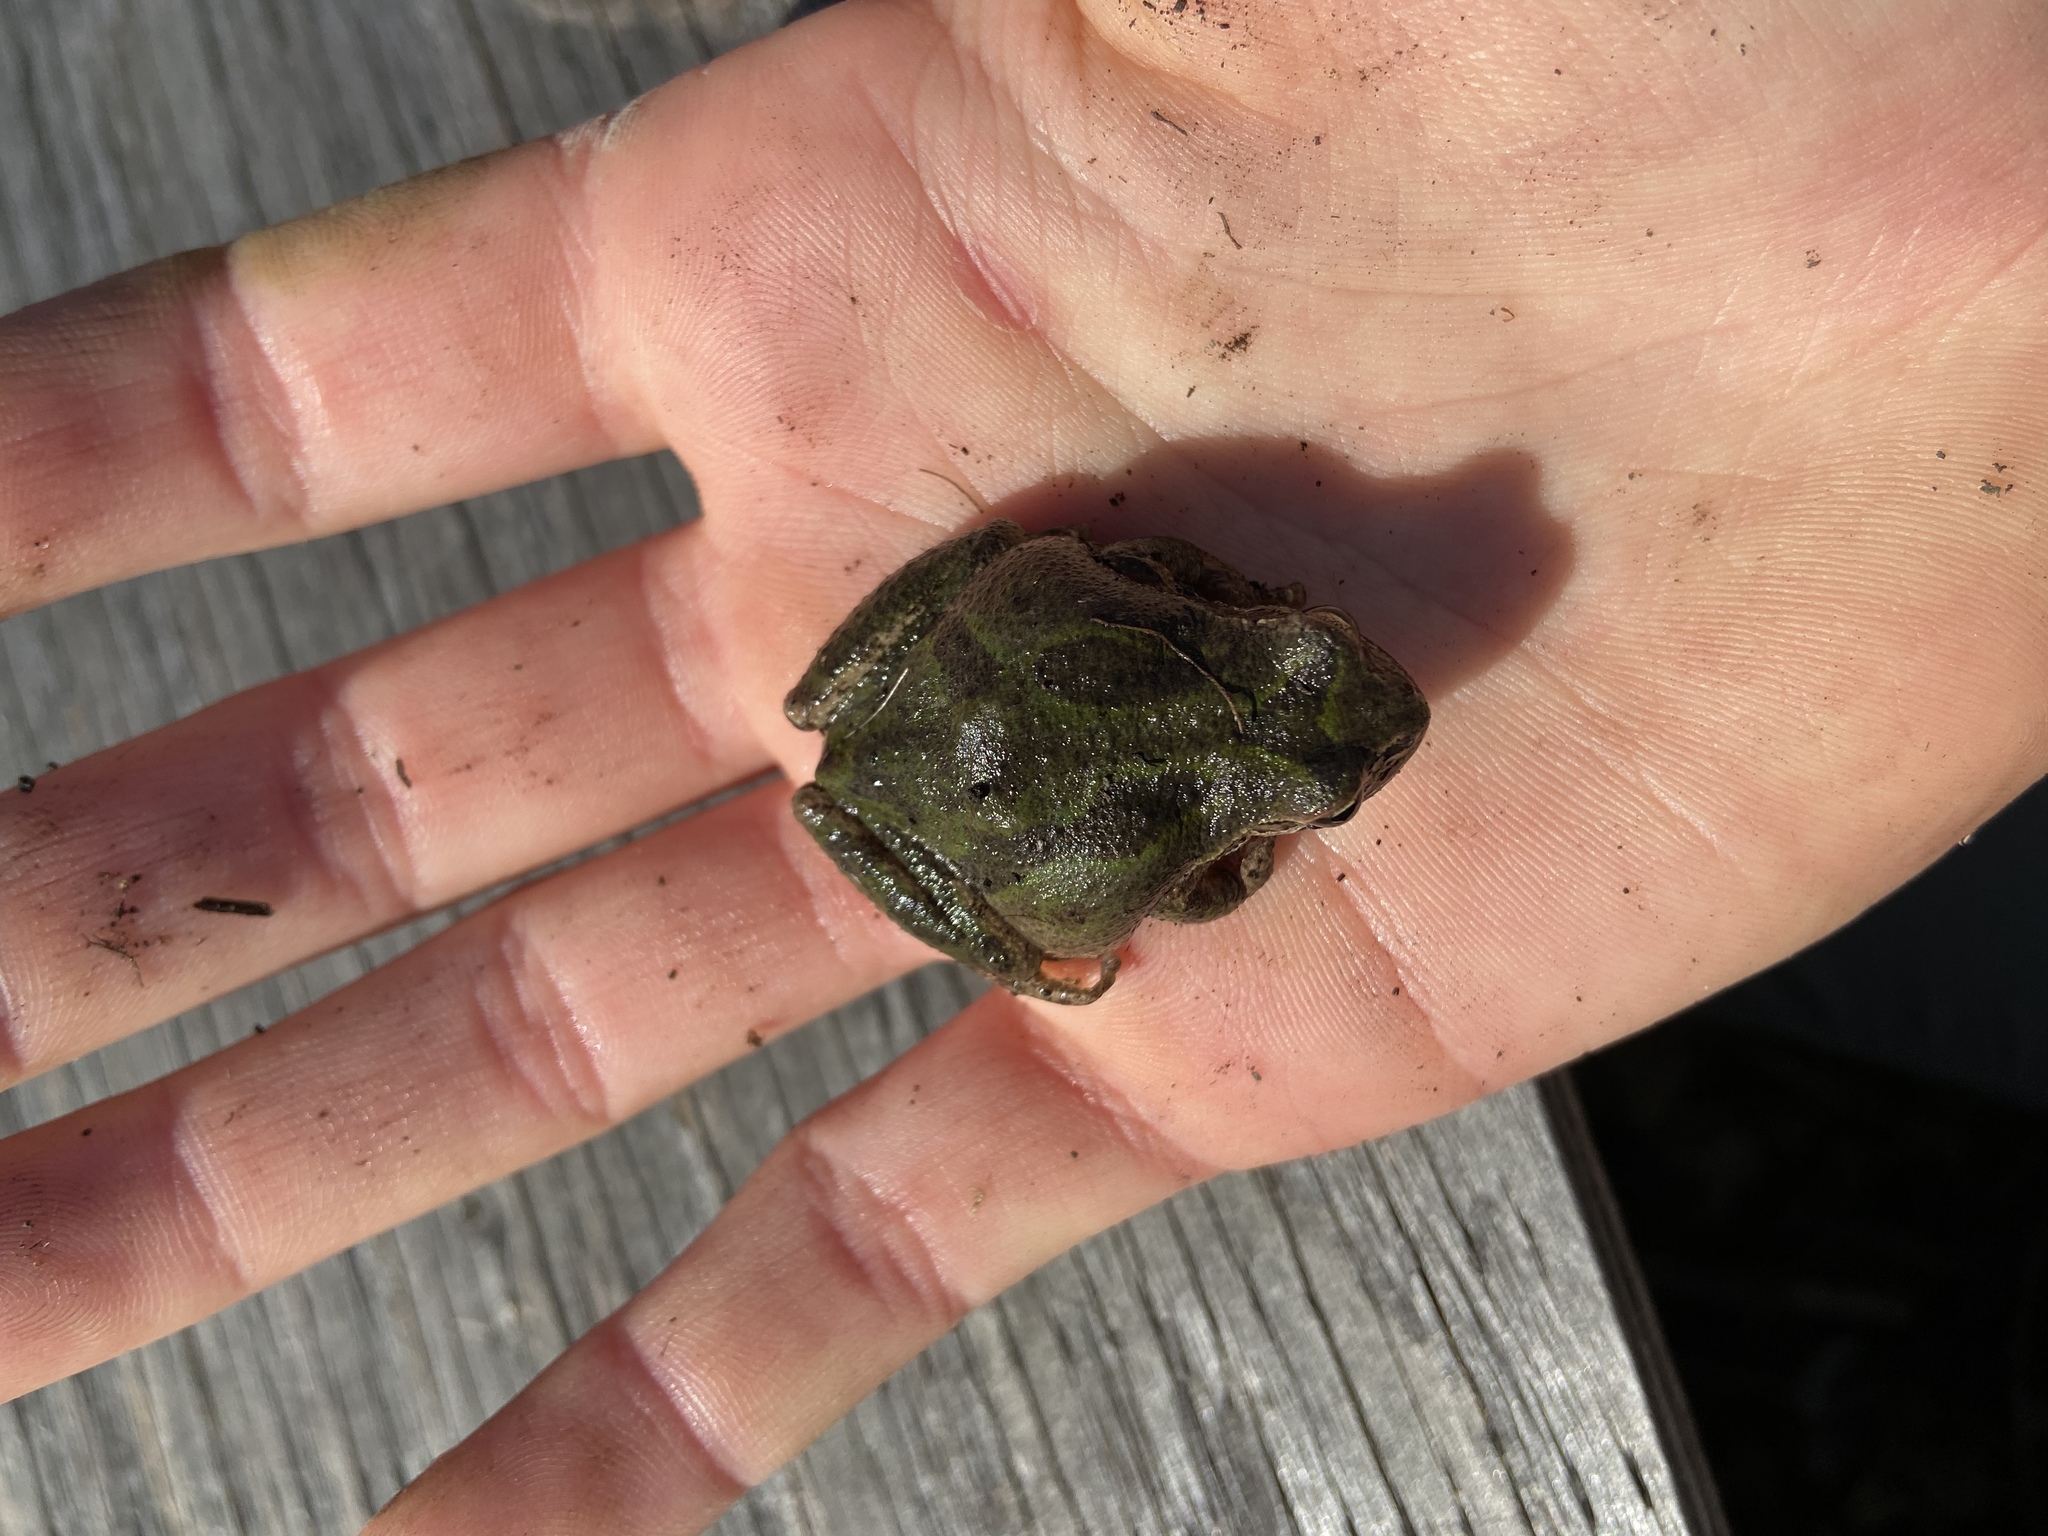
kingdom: Animalia
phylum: Chordata
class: Amphibia
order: Anura
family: Hylidae
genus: Pseudacris
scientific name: Pseudacris regilla
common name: Pacific chorus frog
